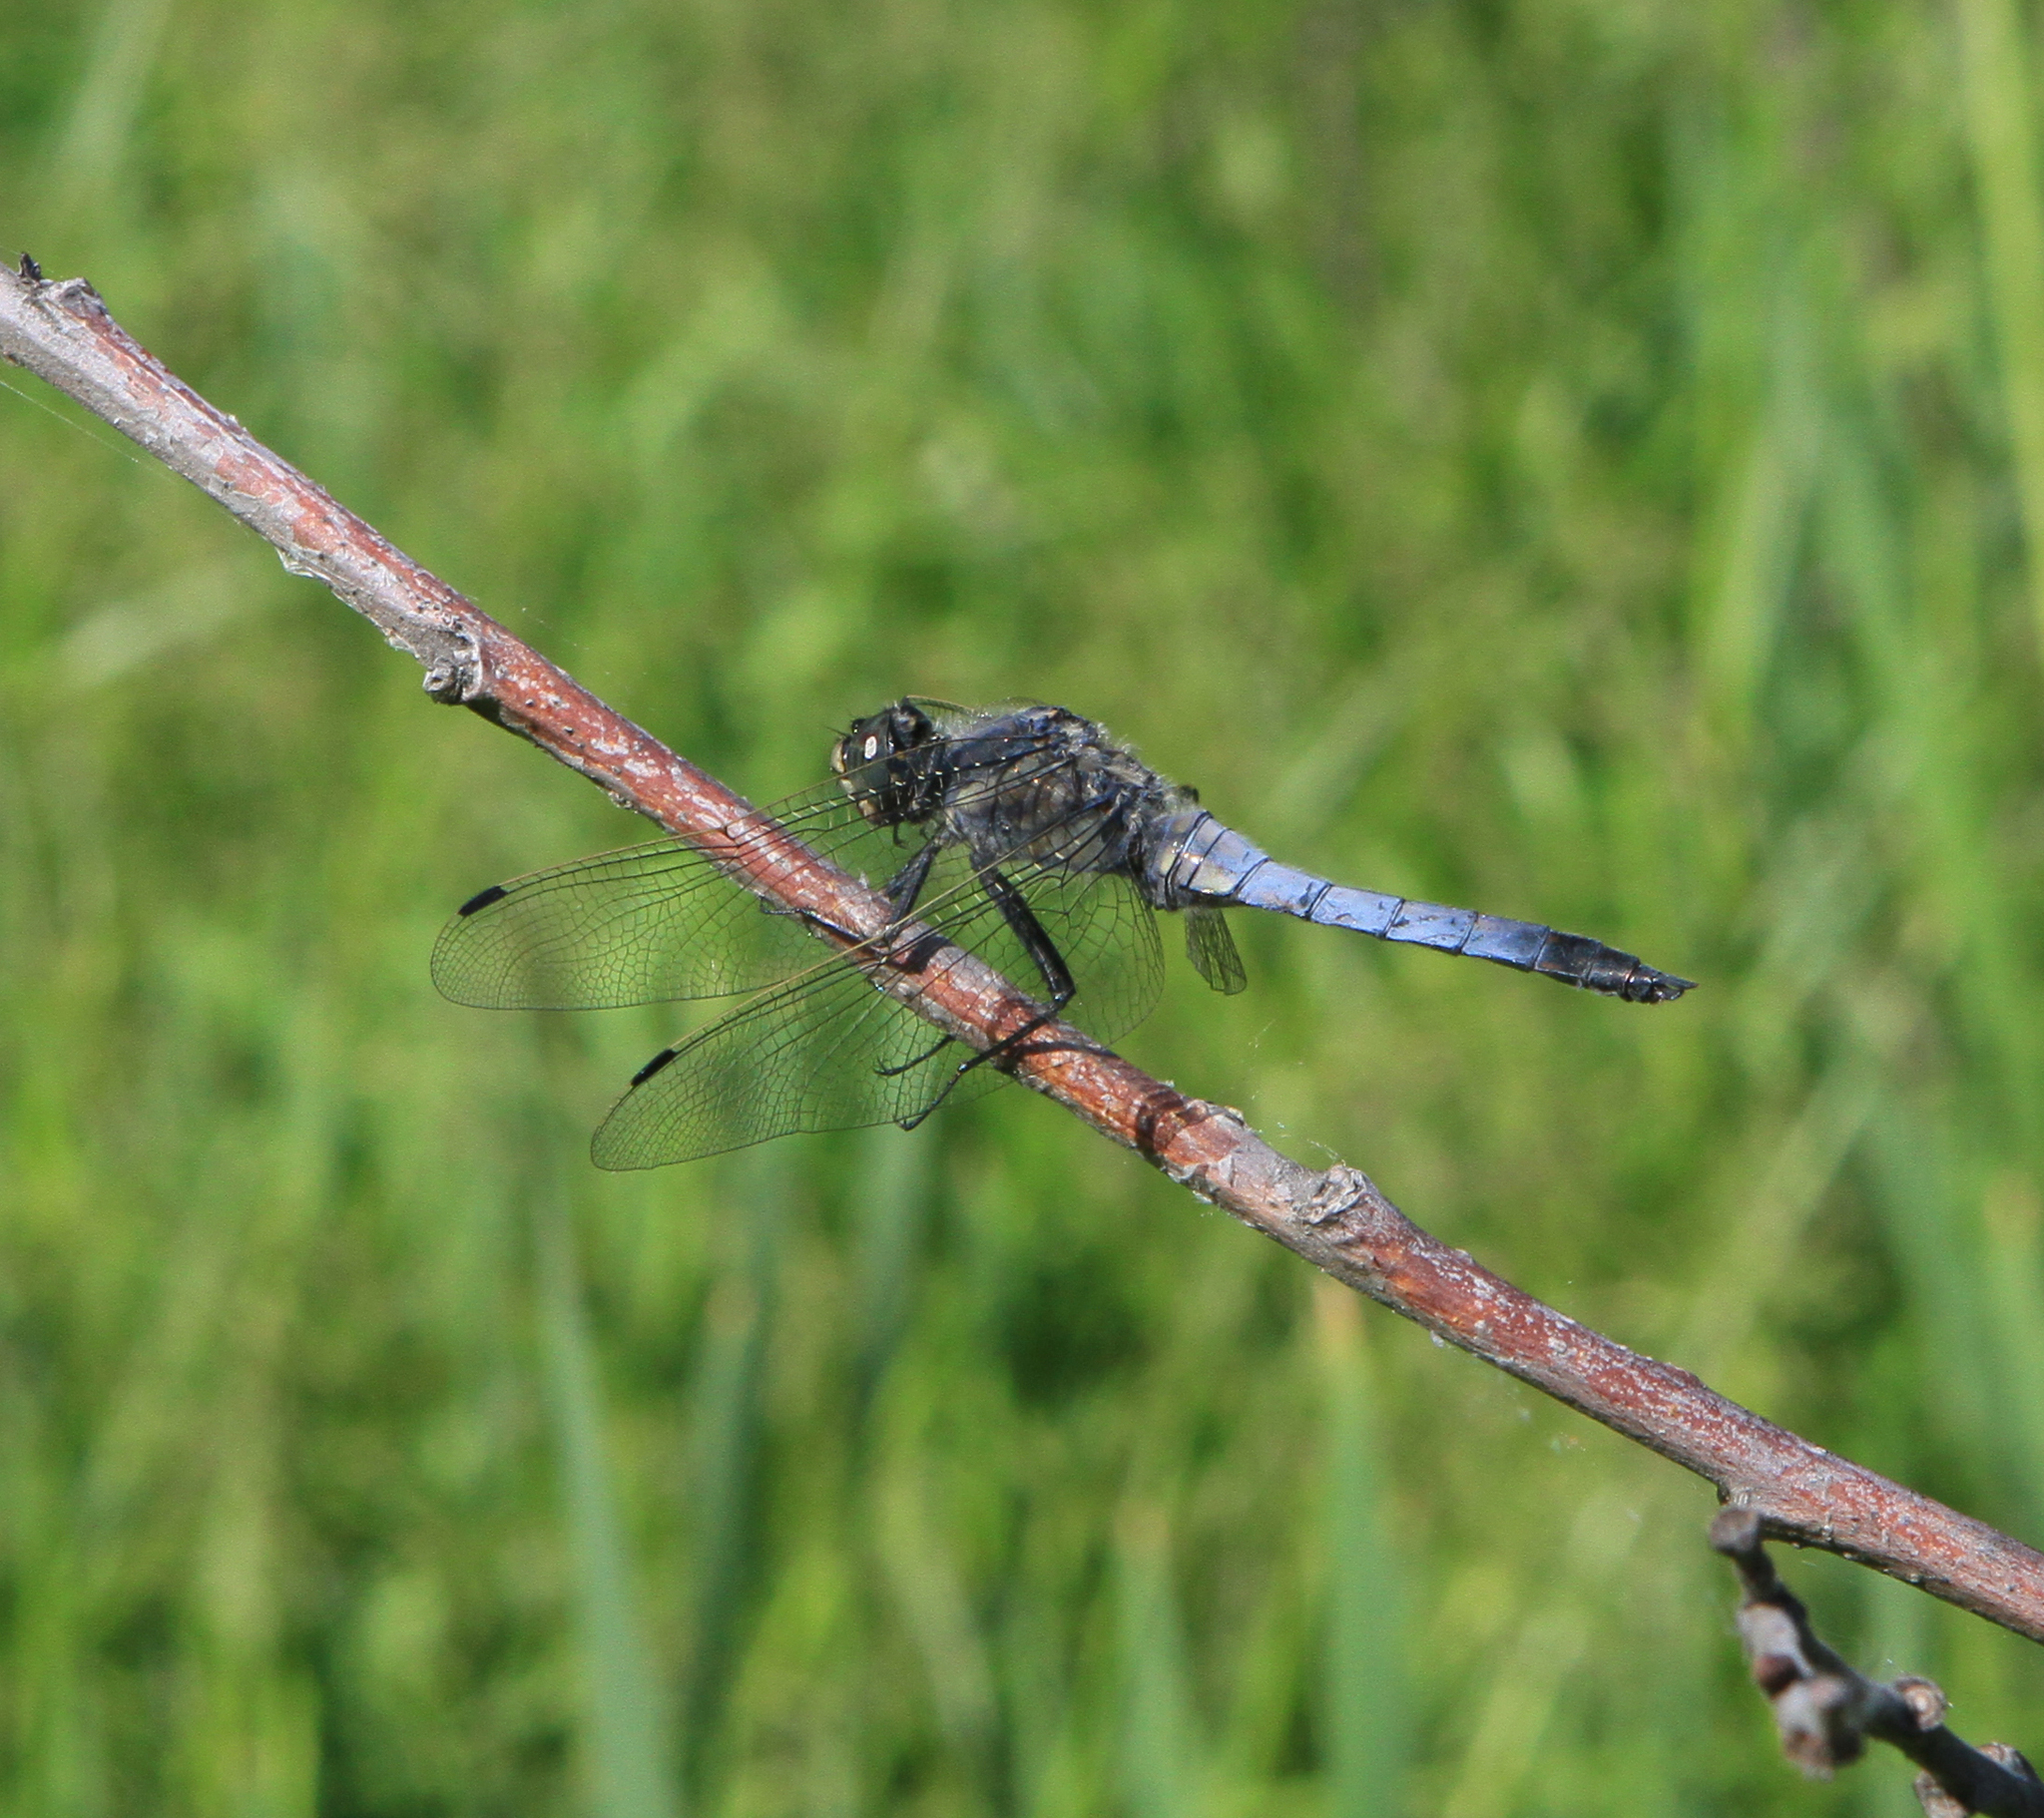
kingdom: Animalia
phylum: Arthropoda
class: Insecta
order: Odonata
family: Libellulidae
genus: Orthetrum
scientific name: Orthetrum cancellatum
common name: Black-tailed skimmer
